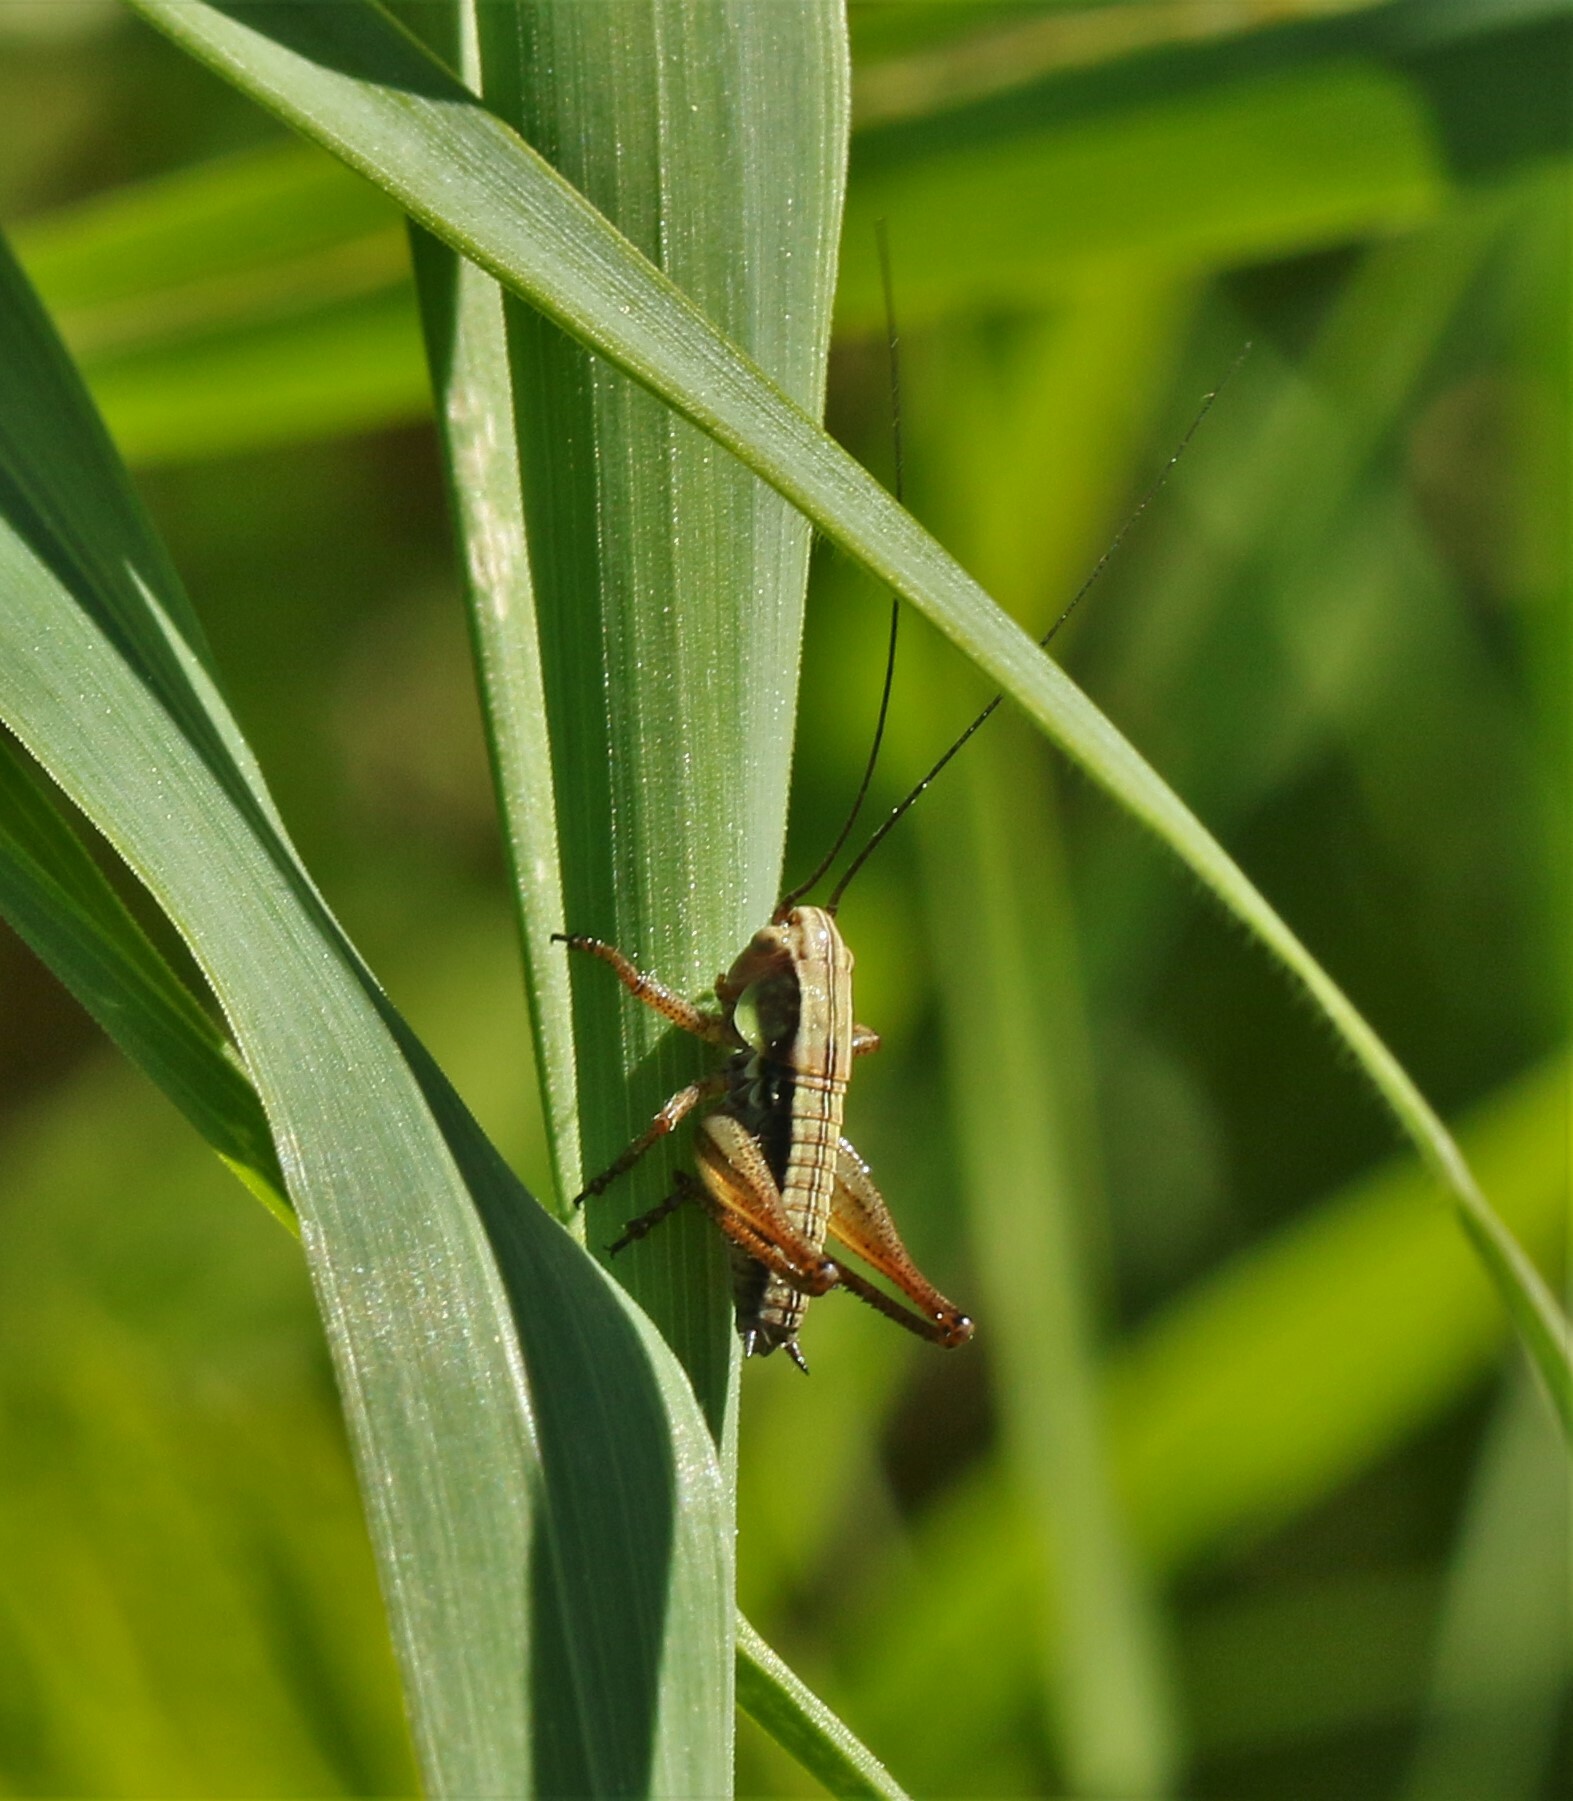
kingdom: Animalia
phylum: Arthropoda
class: Insecta
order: Orthoptera
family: Tettigoniidae
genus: Roeseliana
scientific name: Roeseliana roeselii
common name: Roesel's bush cricket
